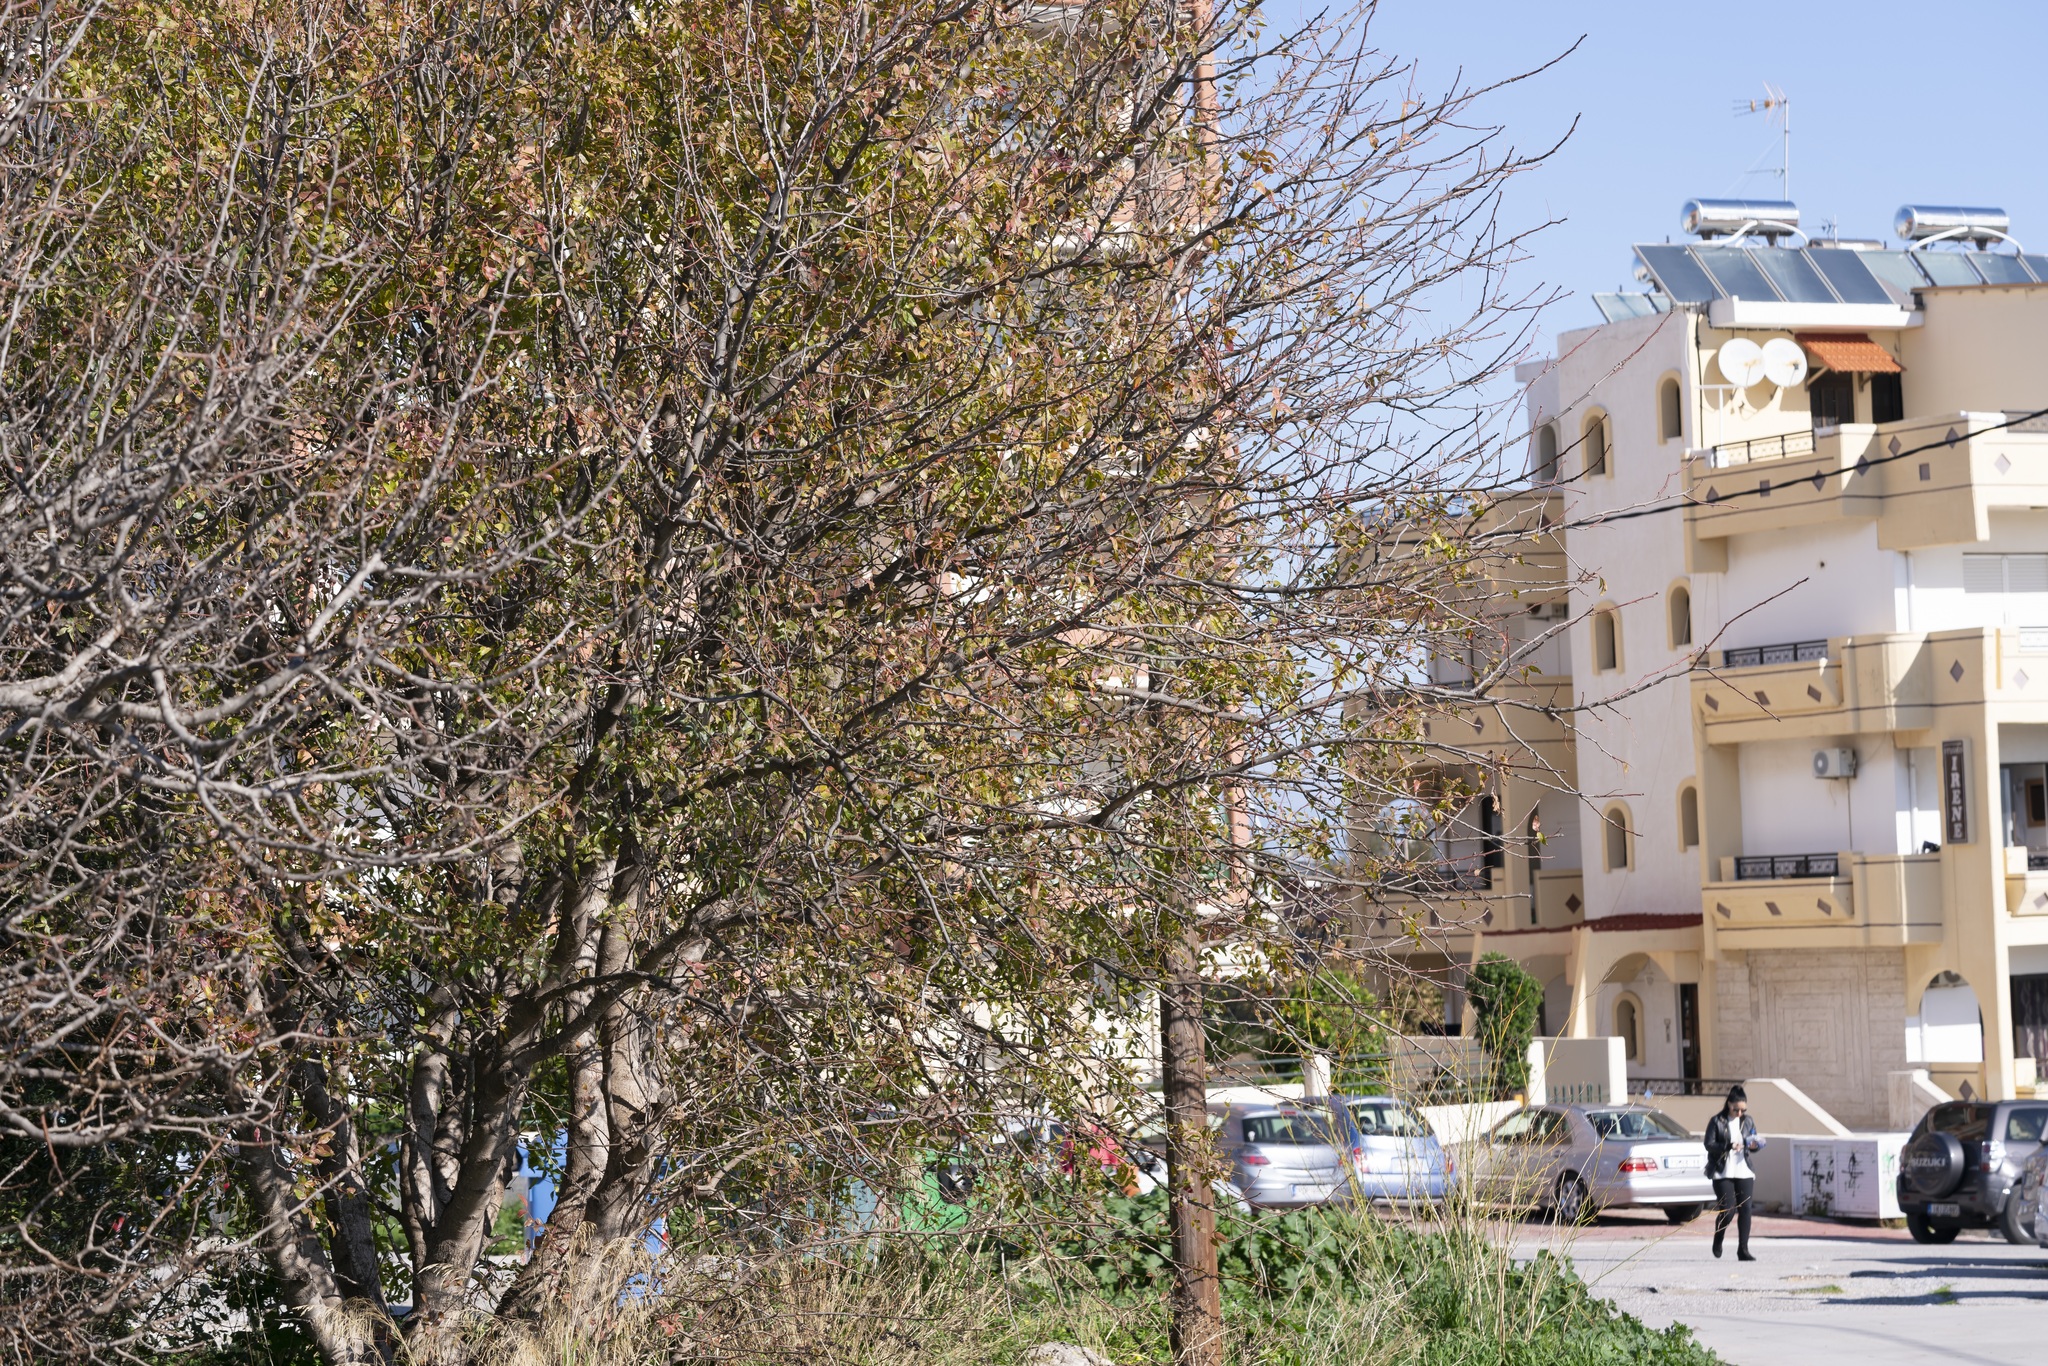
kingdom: Plantae
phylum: Tracheophyta
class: Magnoliopsida
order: Sapindales
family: Anacardiaceae
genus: Pistacia
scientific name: Pistacia atlantica
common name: Mt. atlas mastic tree
